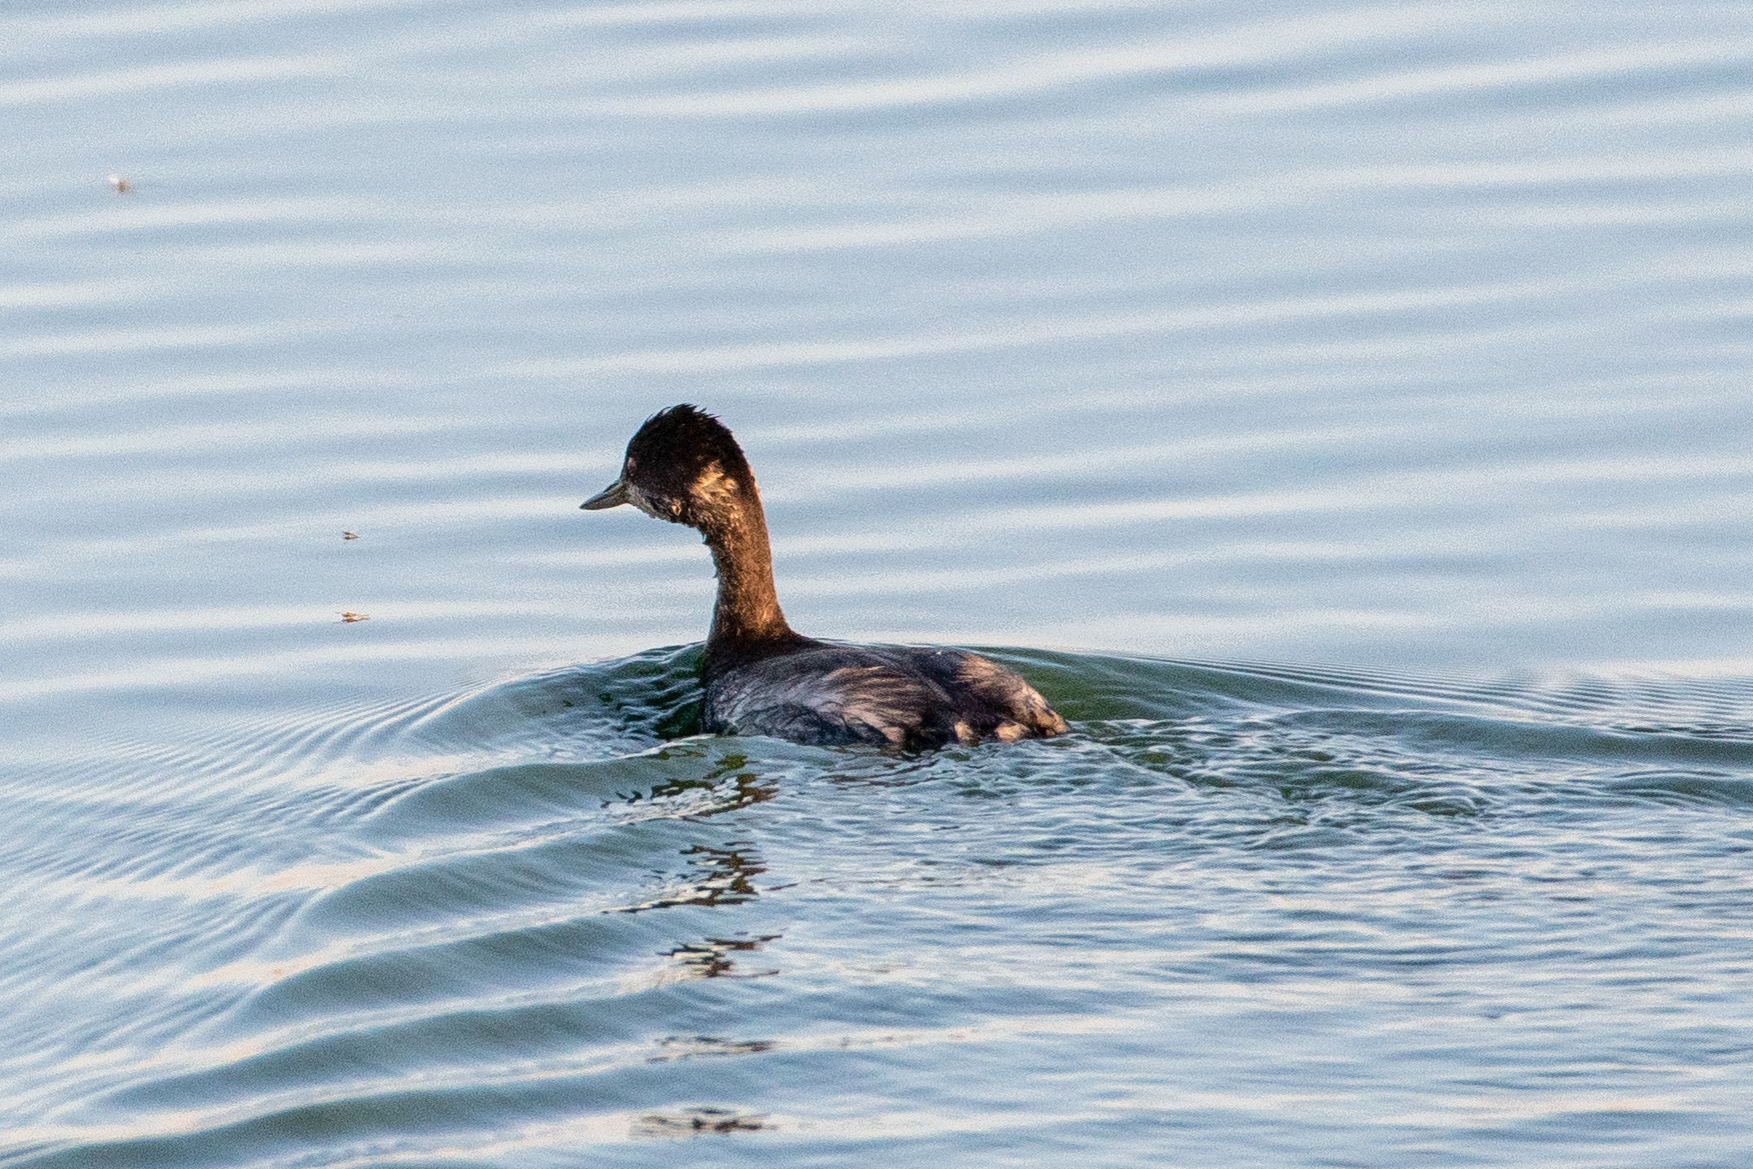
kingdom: Animalia
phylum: Chordata
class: Aves
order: Podicipediformes
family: Podicipedidae
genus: Podiceps
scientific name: Podiceps nigricollis
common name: Black-necked grebe
